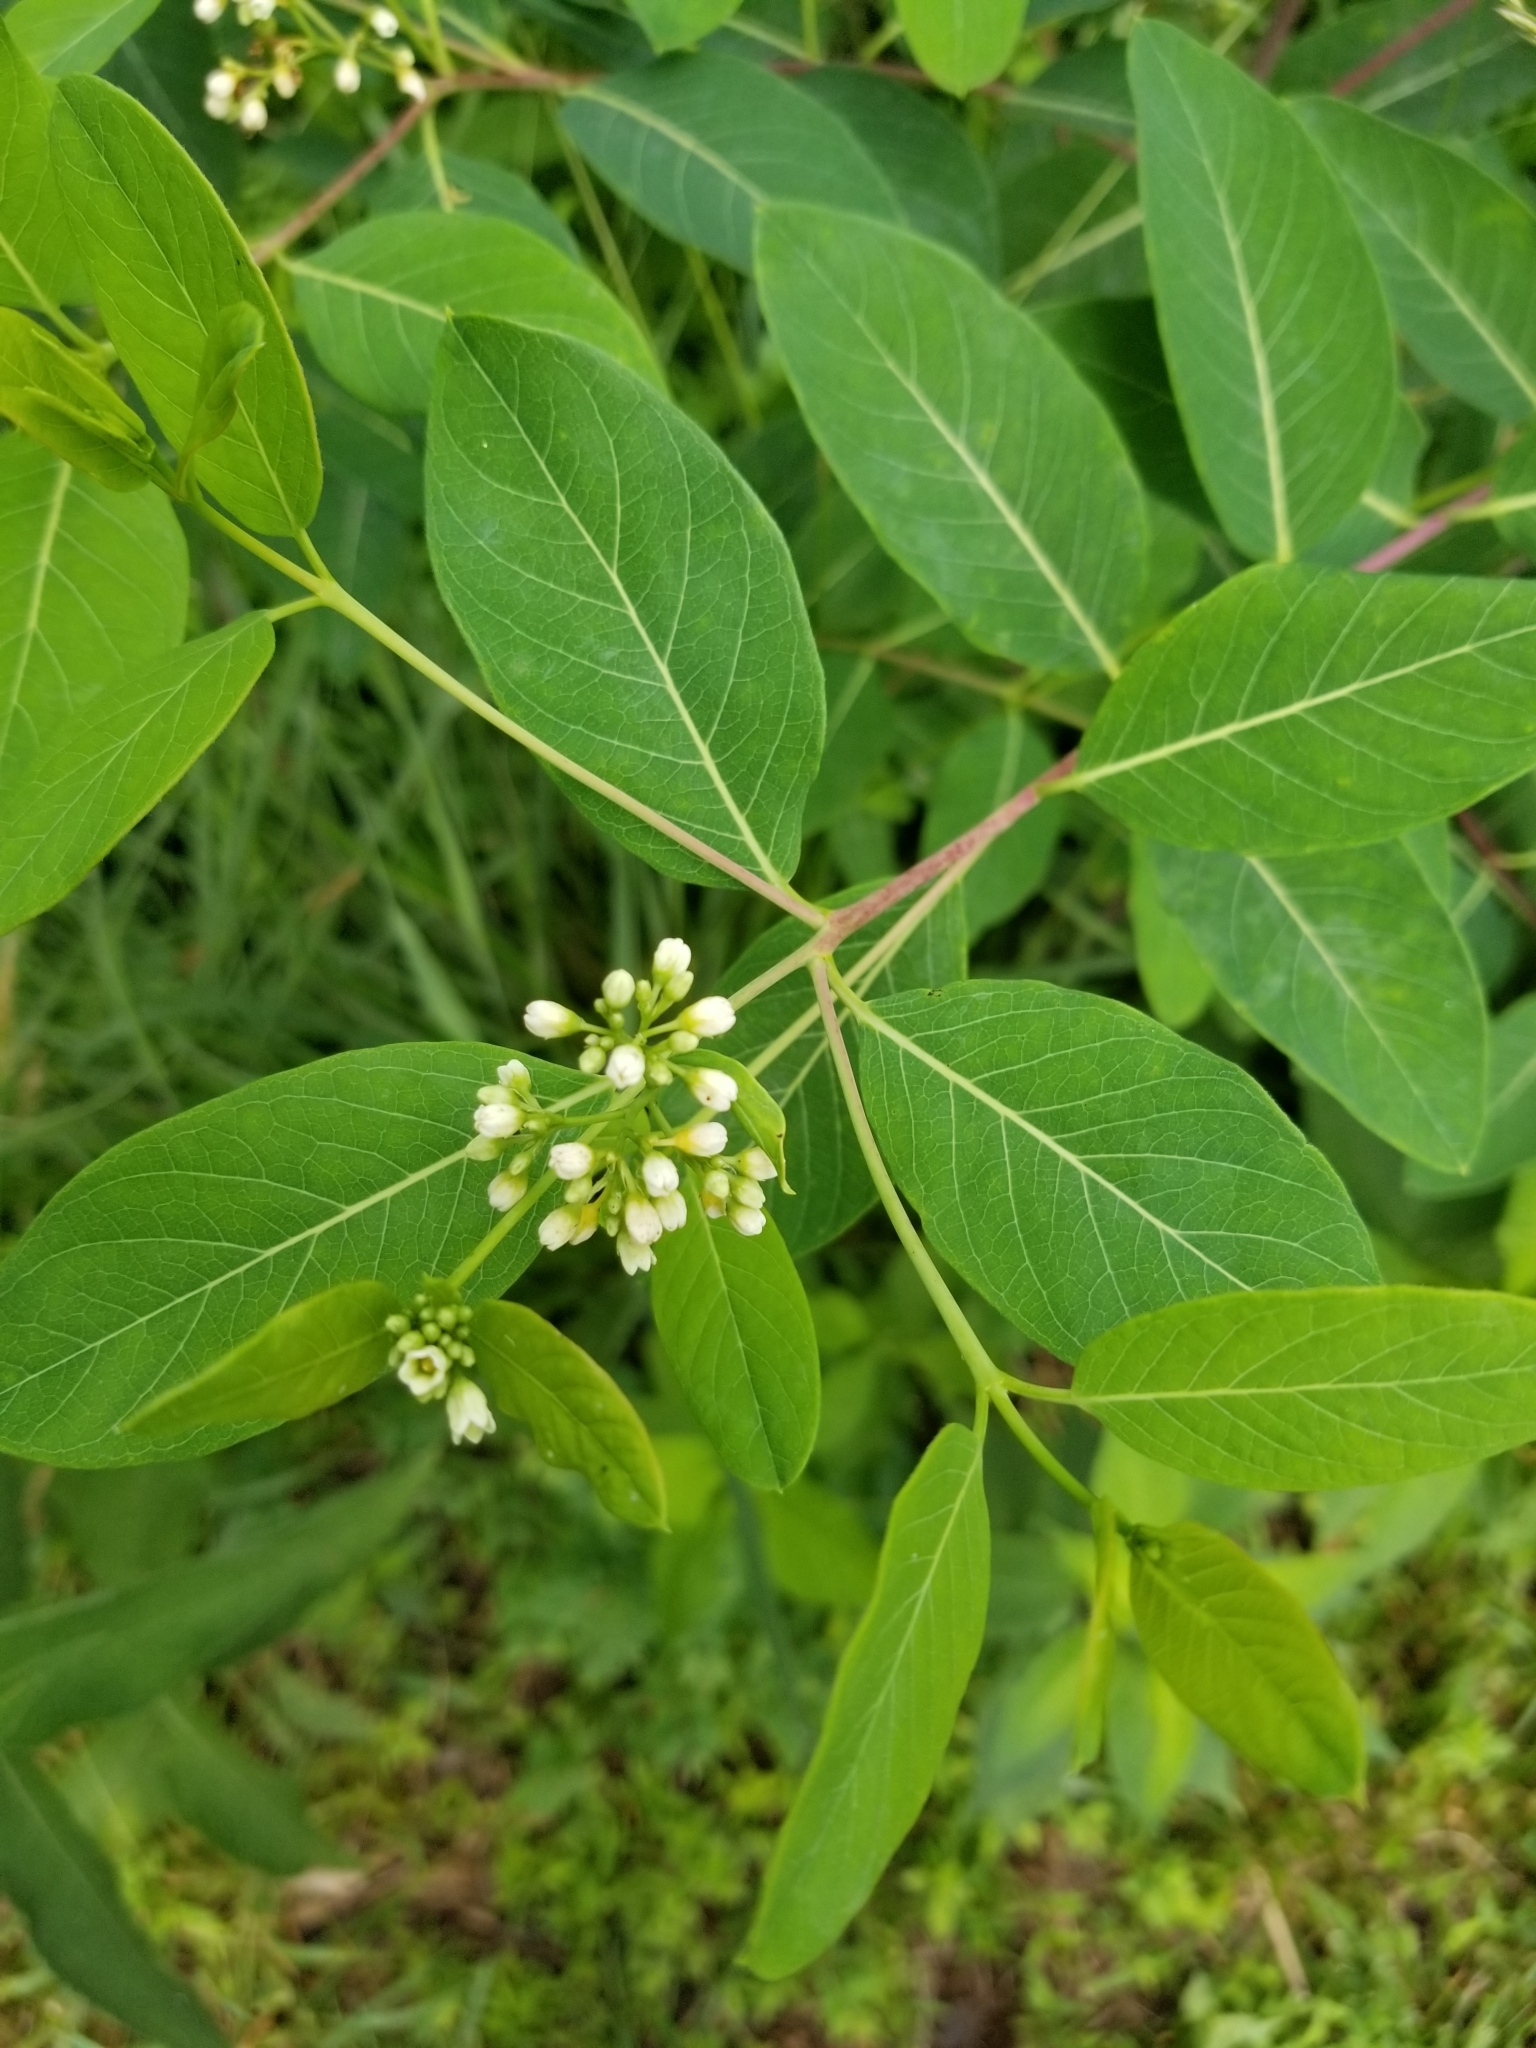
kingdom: Plantae
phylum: Tracheophyta
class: Magnoliopsida
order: Gentianales
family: Apocynaceae
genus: Apocynum
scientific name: Apocynum cannabinum
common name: Hemp dogbane
